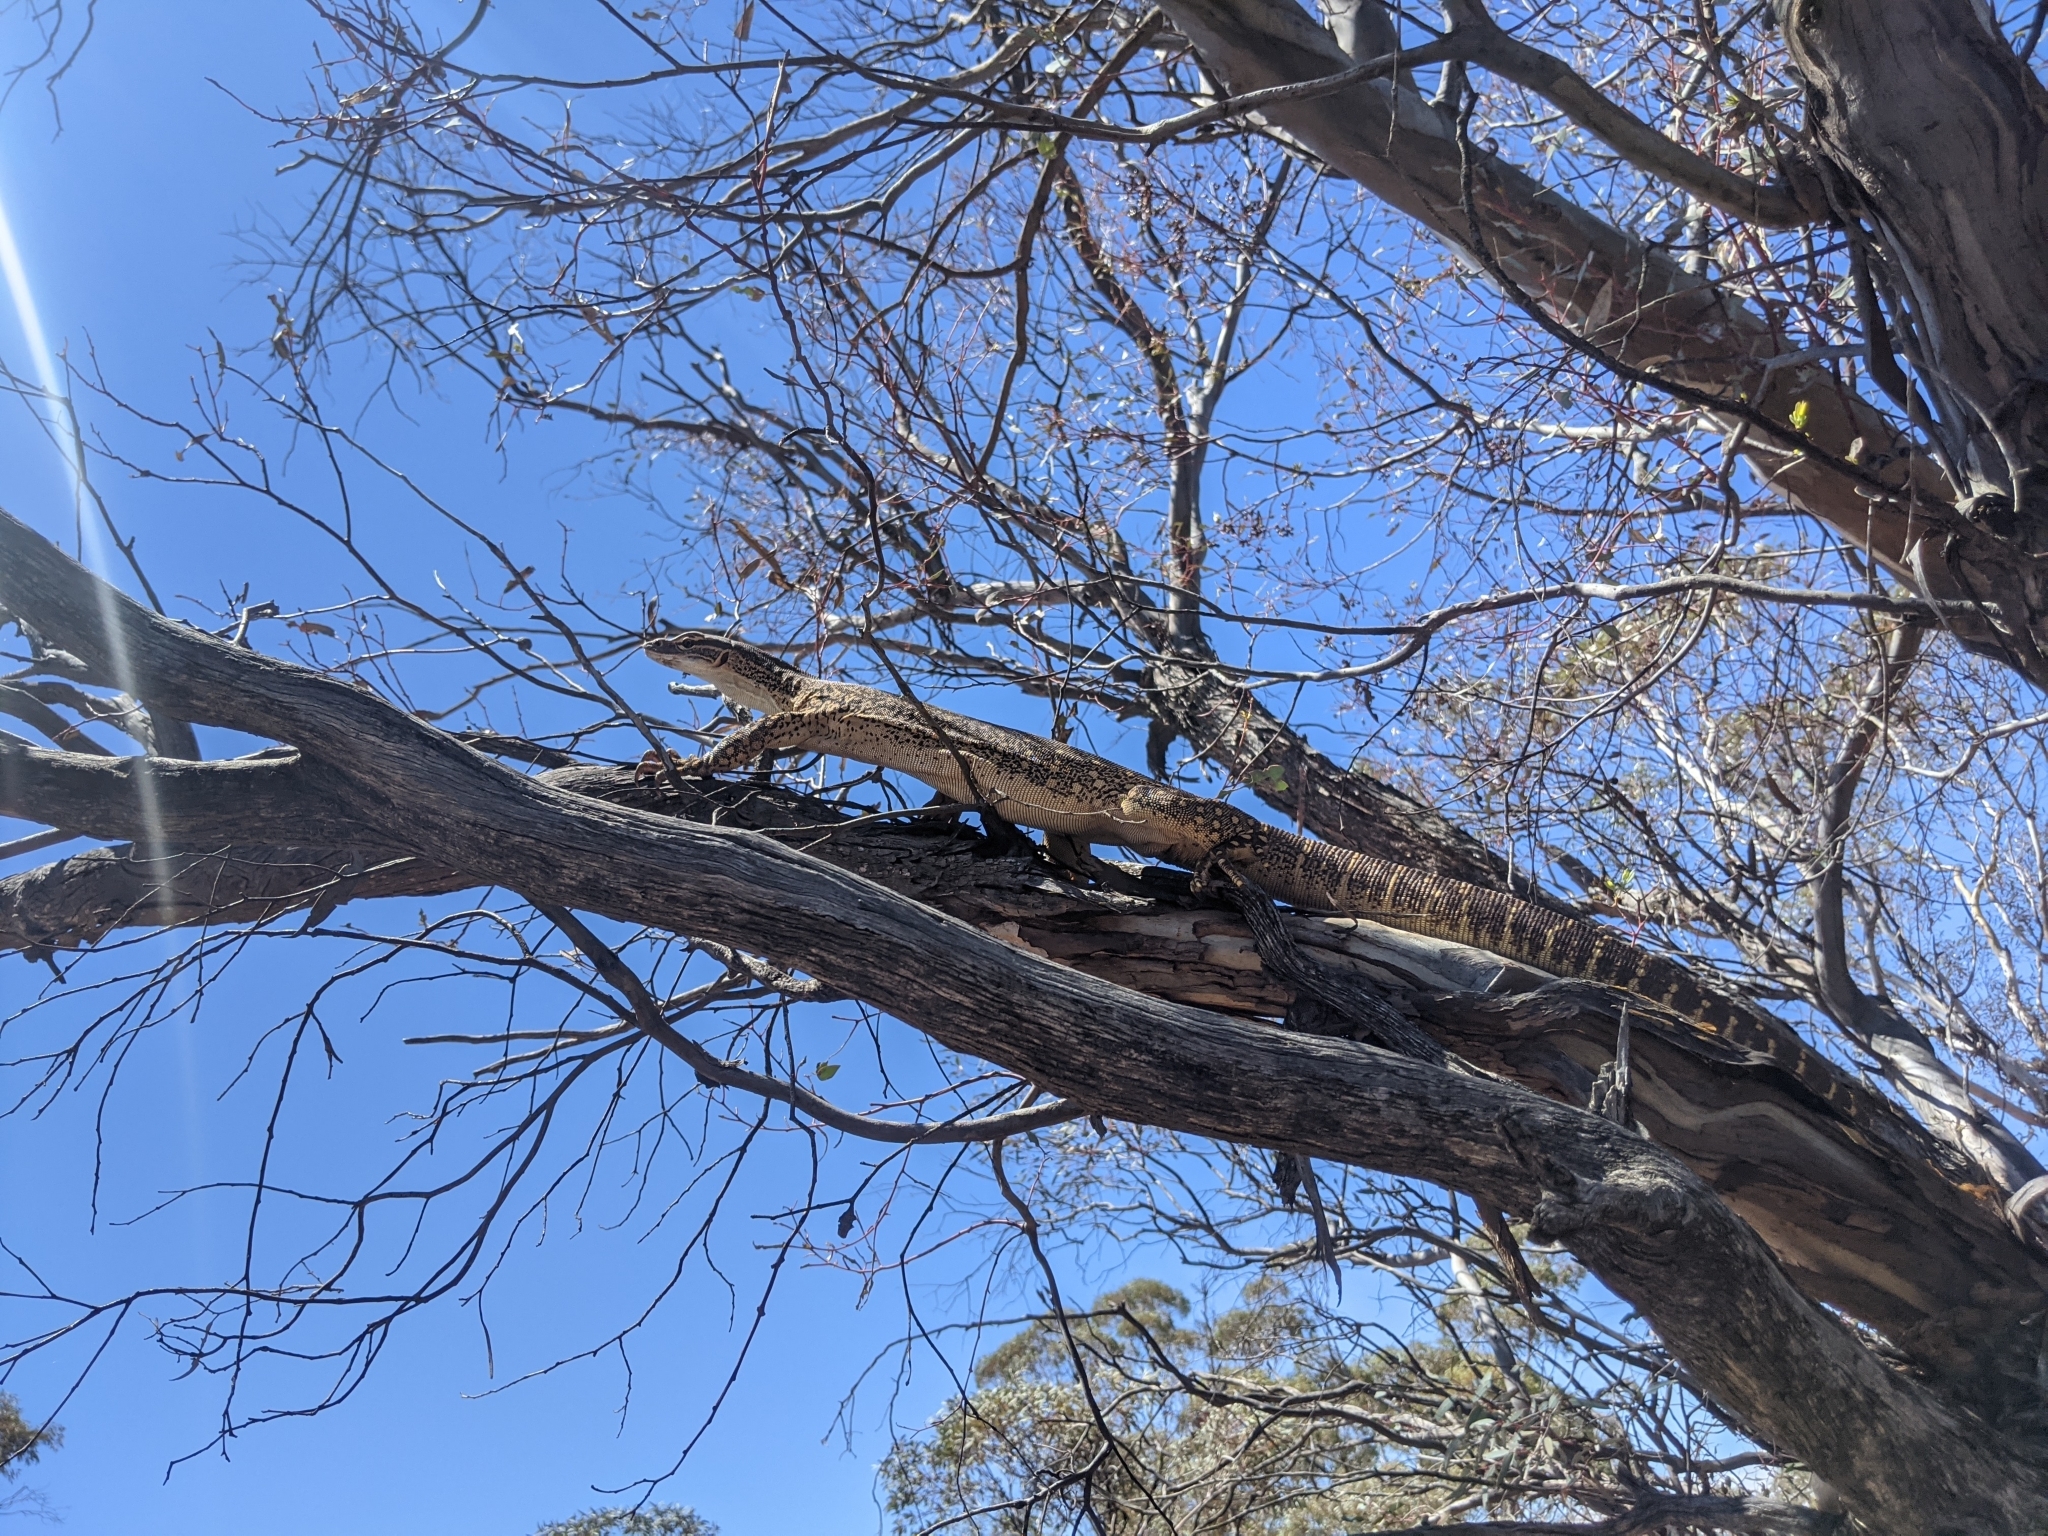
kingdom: Animalia
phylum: Chordata
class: Squamata
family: Varanidae
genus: Varanus
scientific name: Varanus gouldii
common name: Gould's goanna
